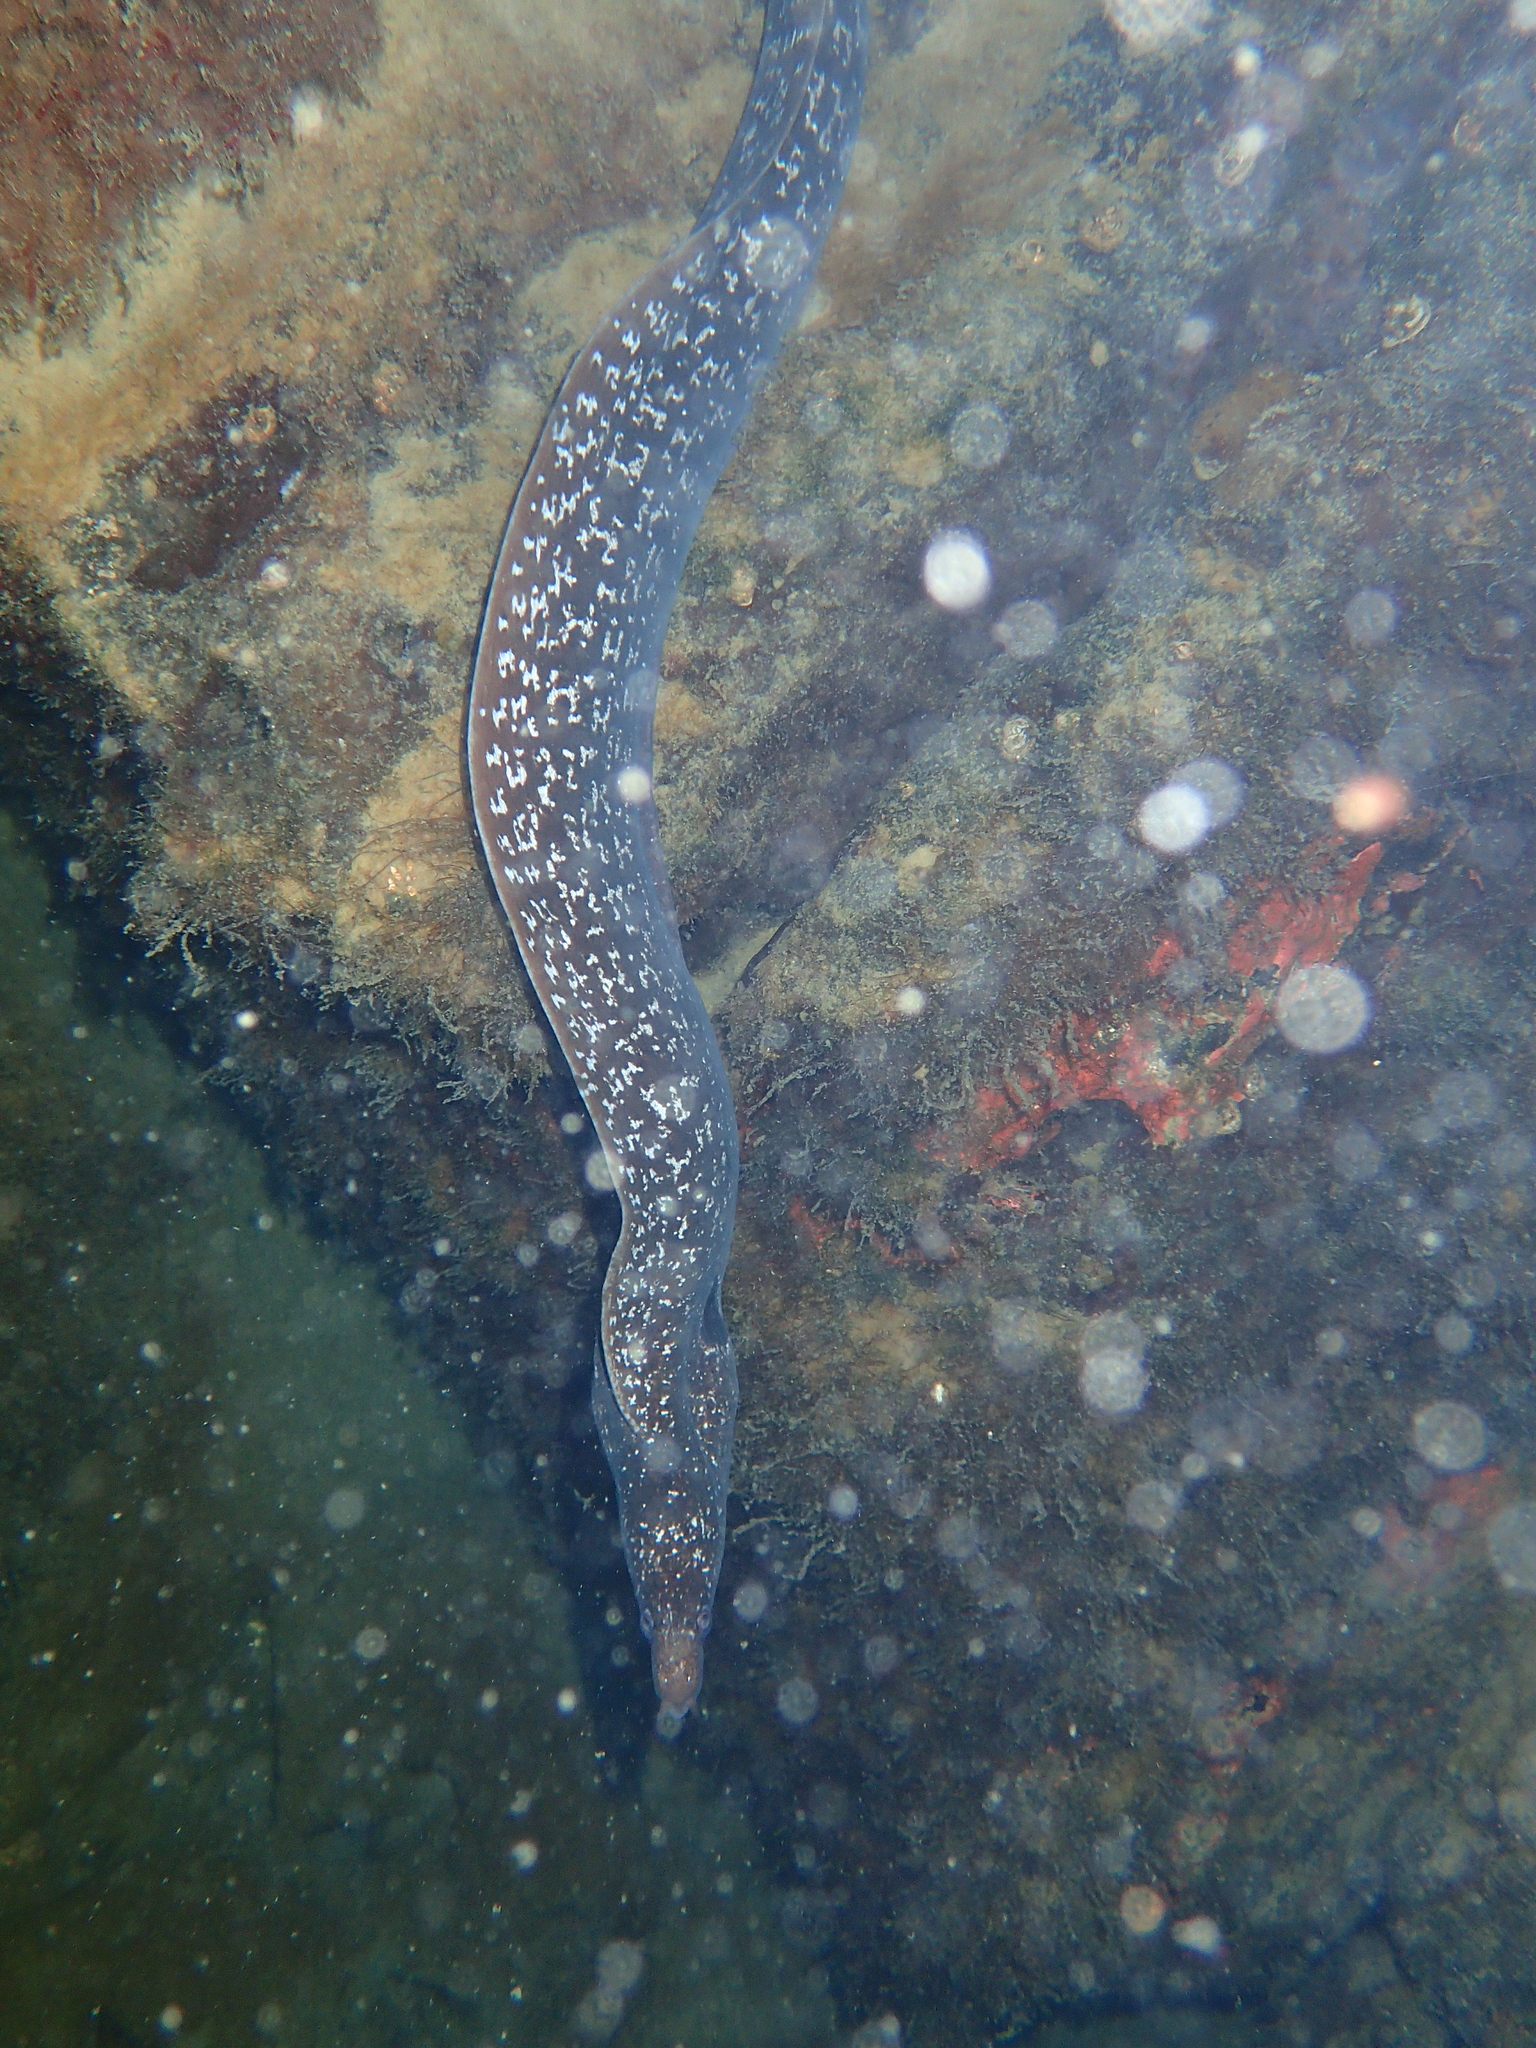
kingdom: Animalia
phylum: Chordata
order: Anguilliformes
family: Muraenidae
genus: Muraena
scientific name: Muraena clepsydra
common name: Hourglass moray
